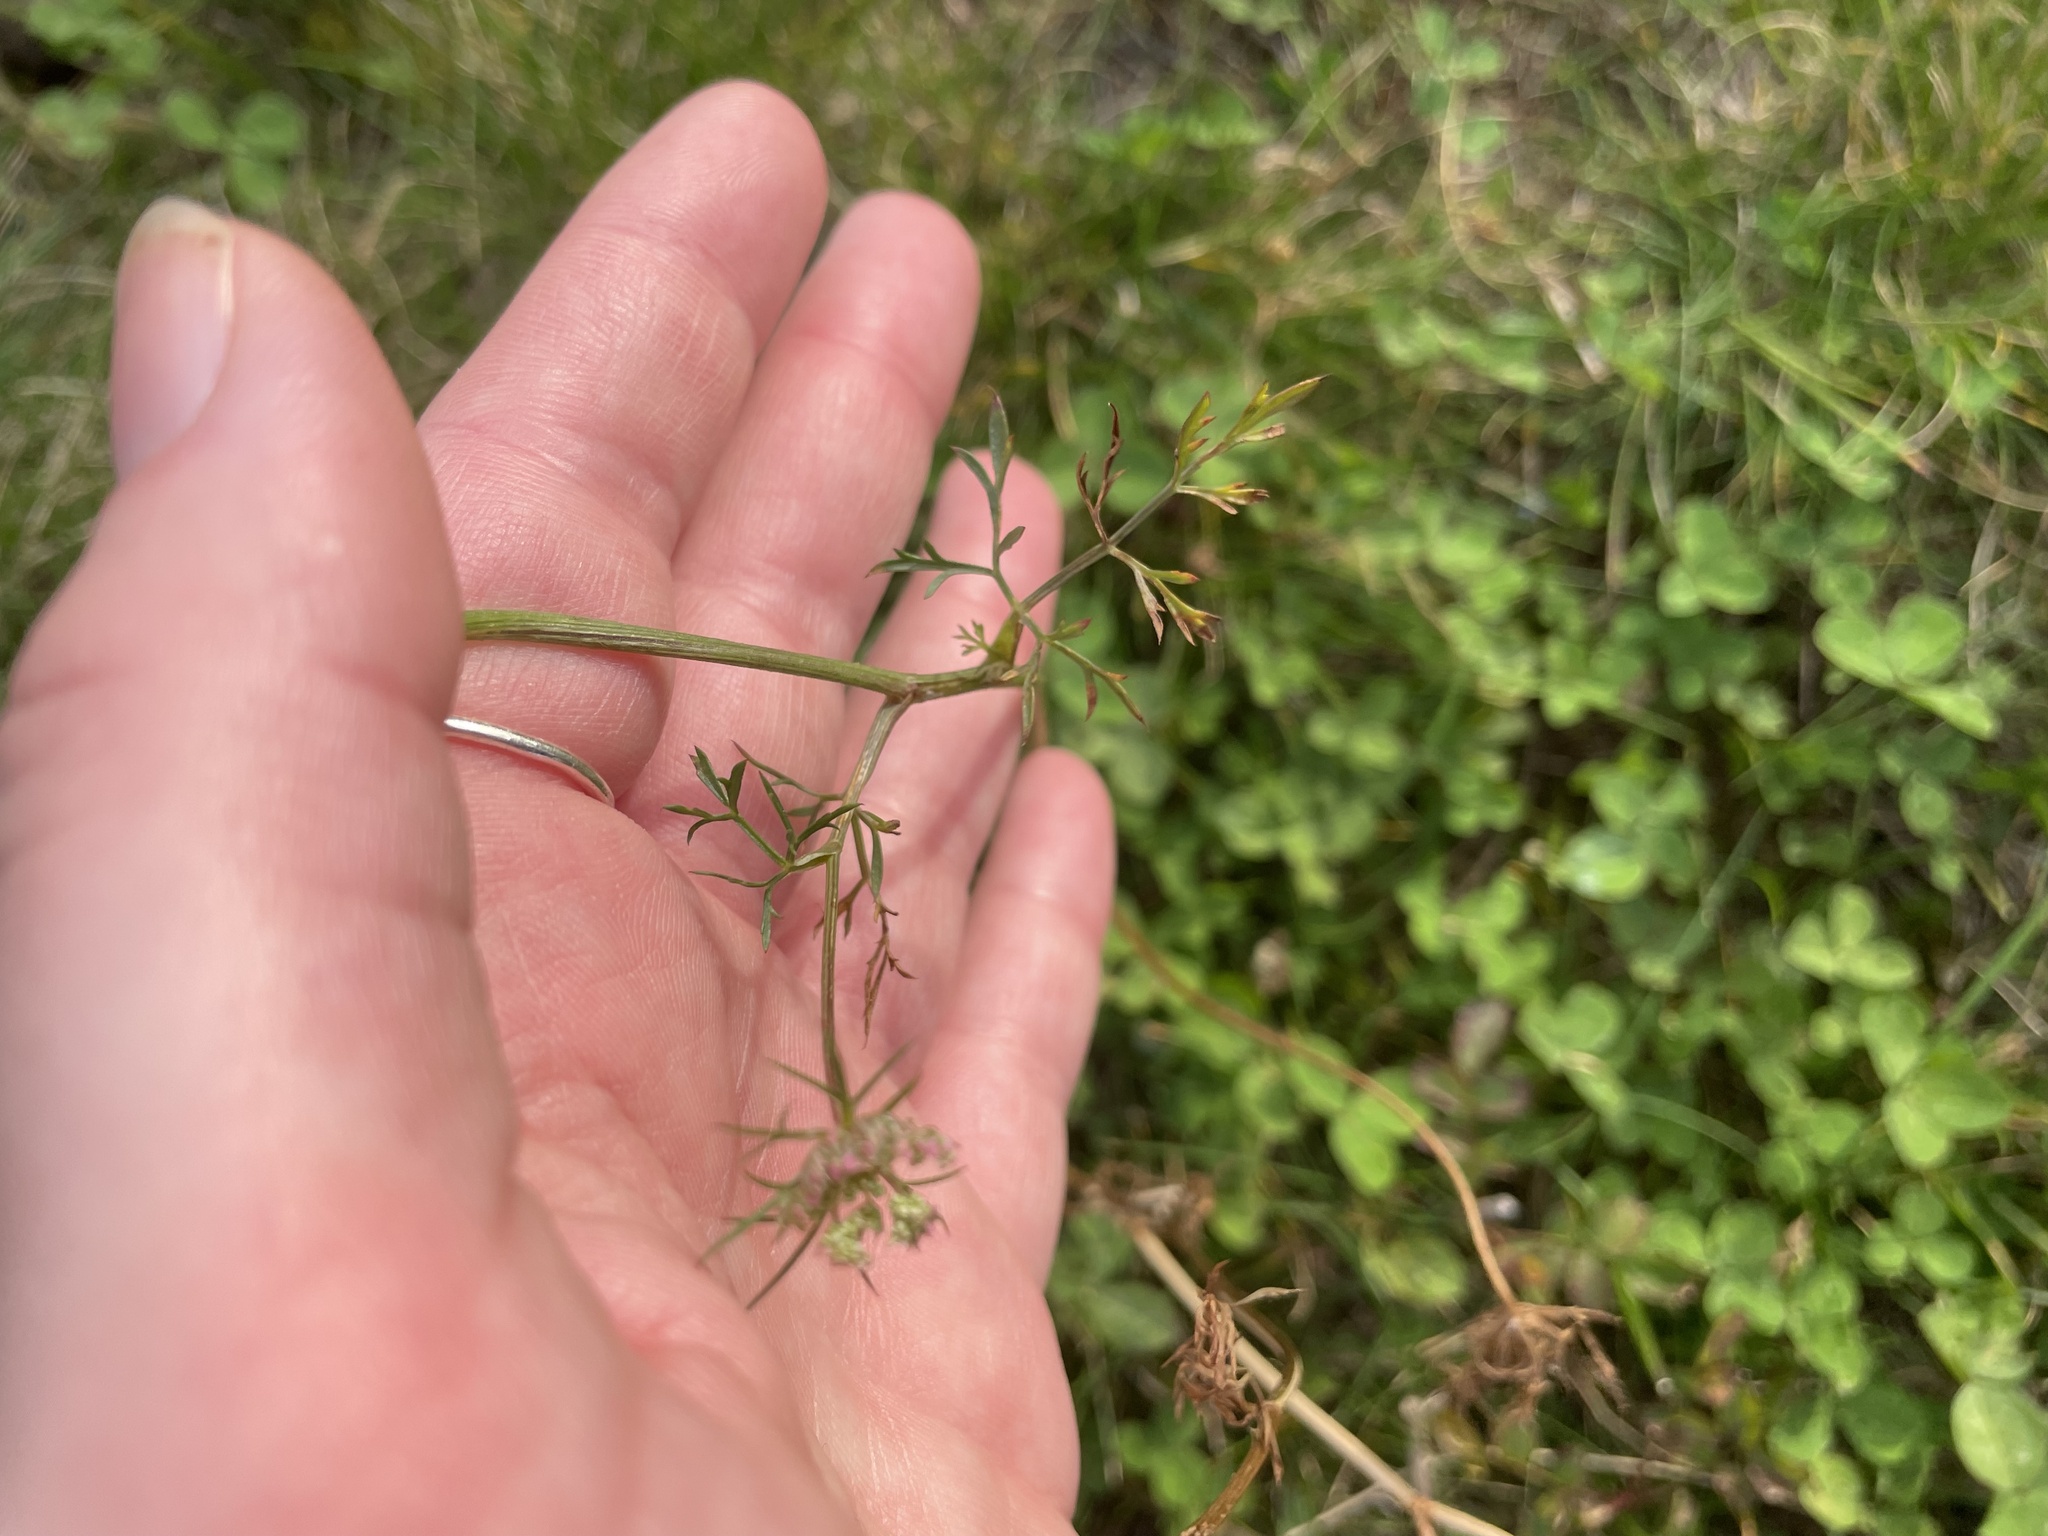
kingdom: Plantae
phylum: Tracheophyta
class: Magnoliopsida
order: Apiales
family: Apiaceae
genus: Daucus
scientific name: Daucus carota
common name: Wild carrot
